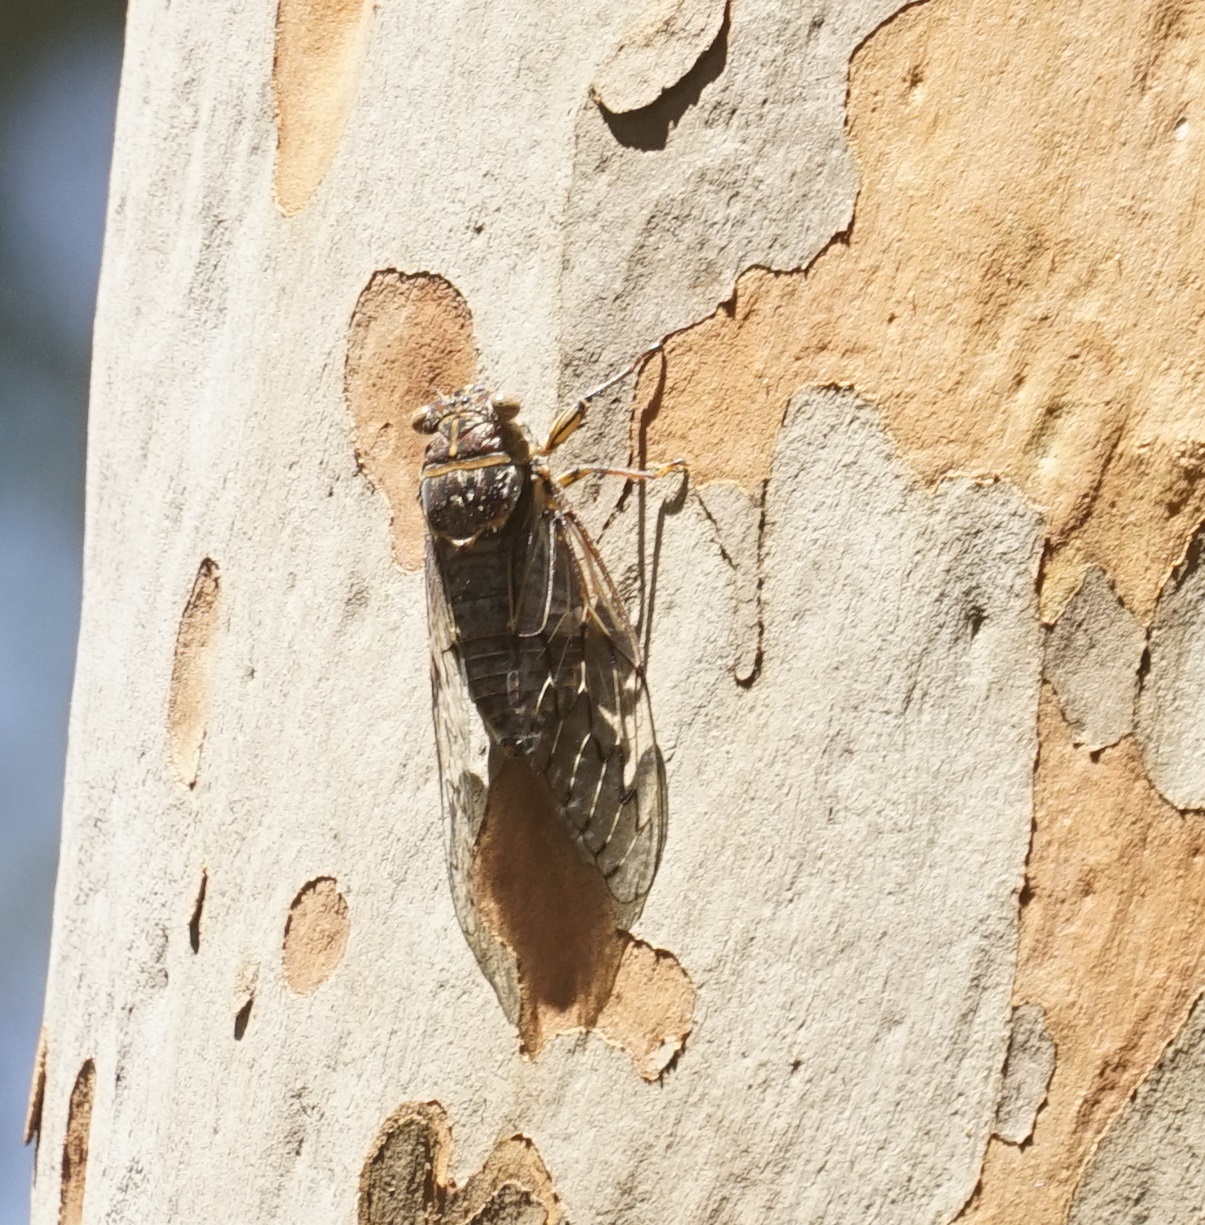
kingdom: Animalia
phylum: Arthropoda
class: Insecta
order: Hemiptera
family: Cicadidae
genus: Henicopsaltria
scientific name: Henicopsaltria eydouxii
